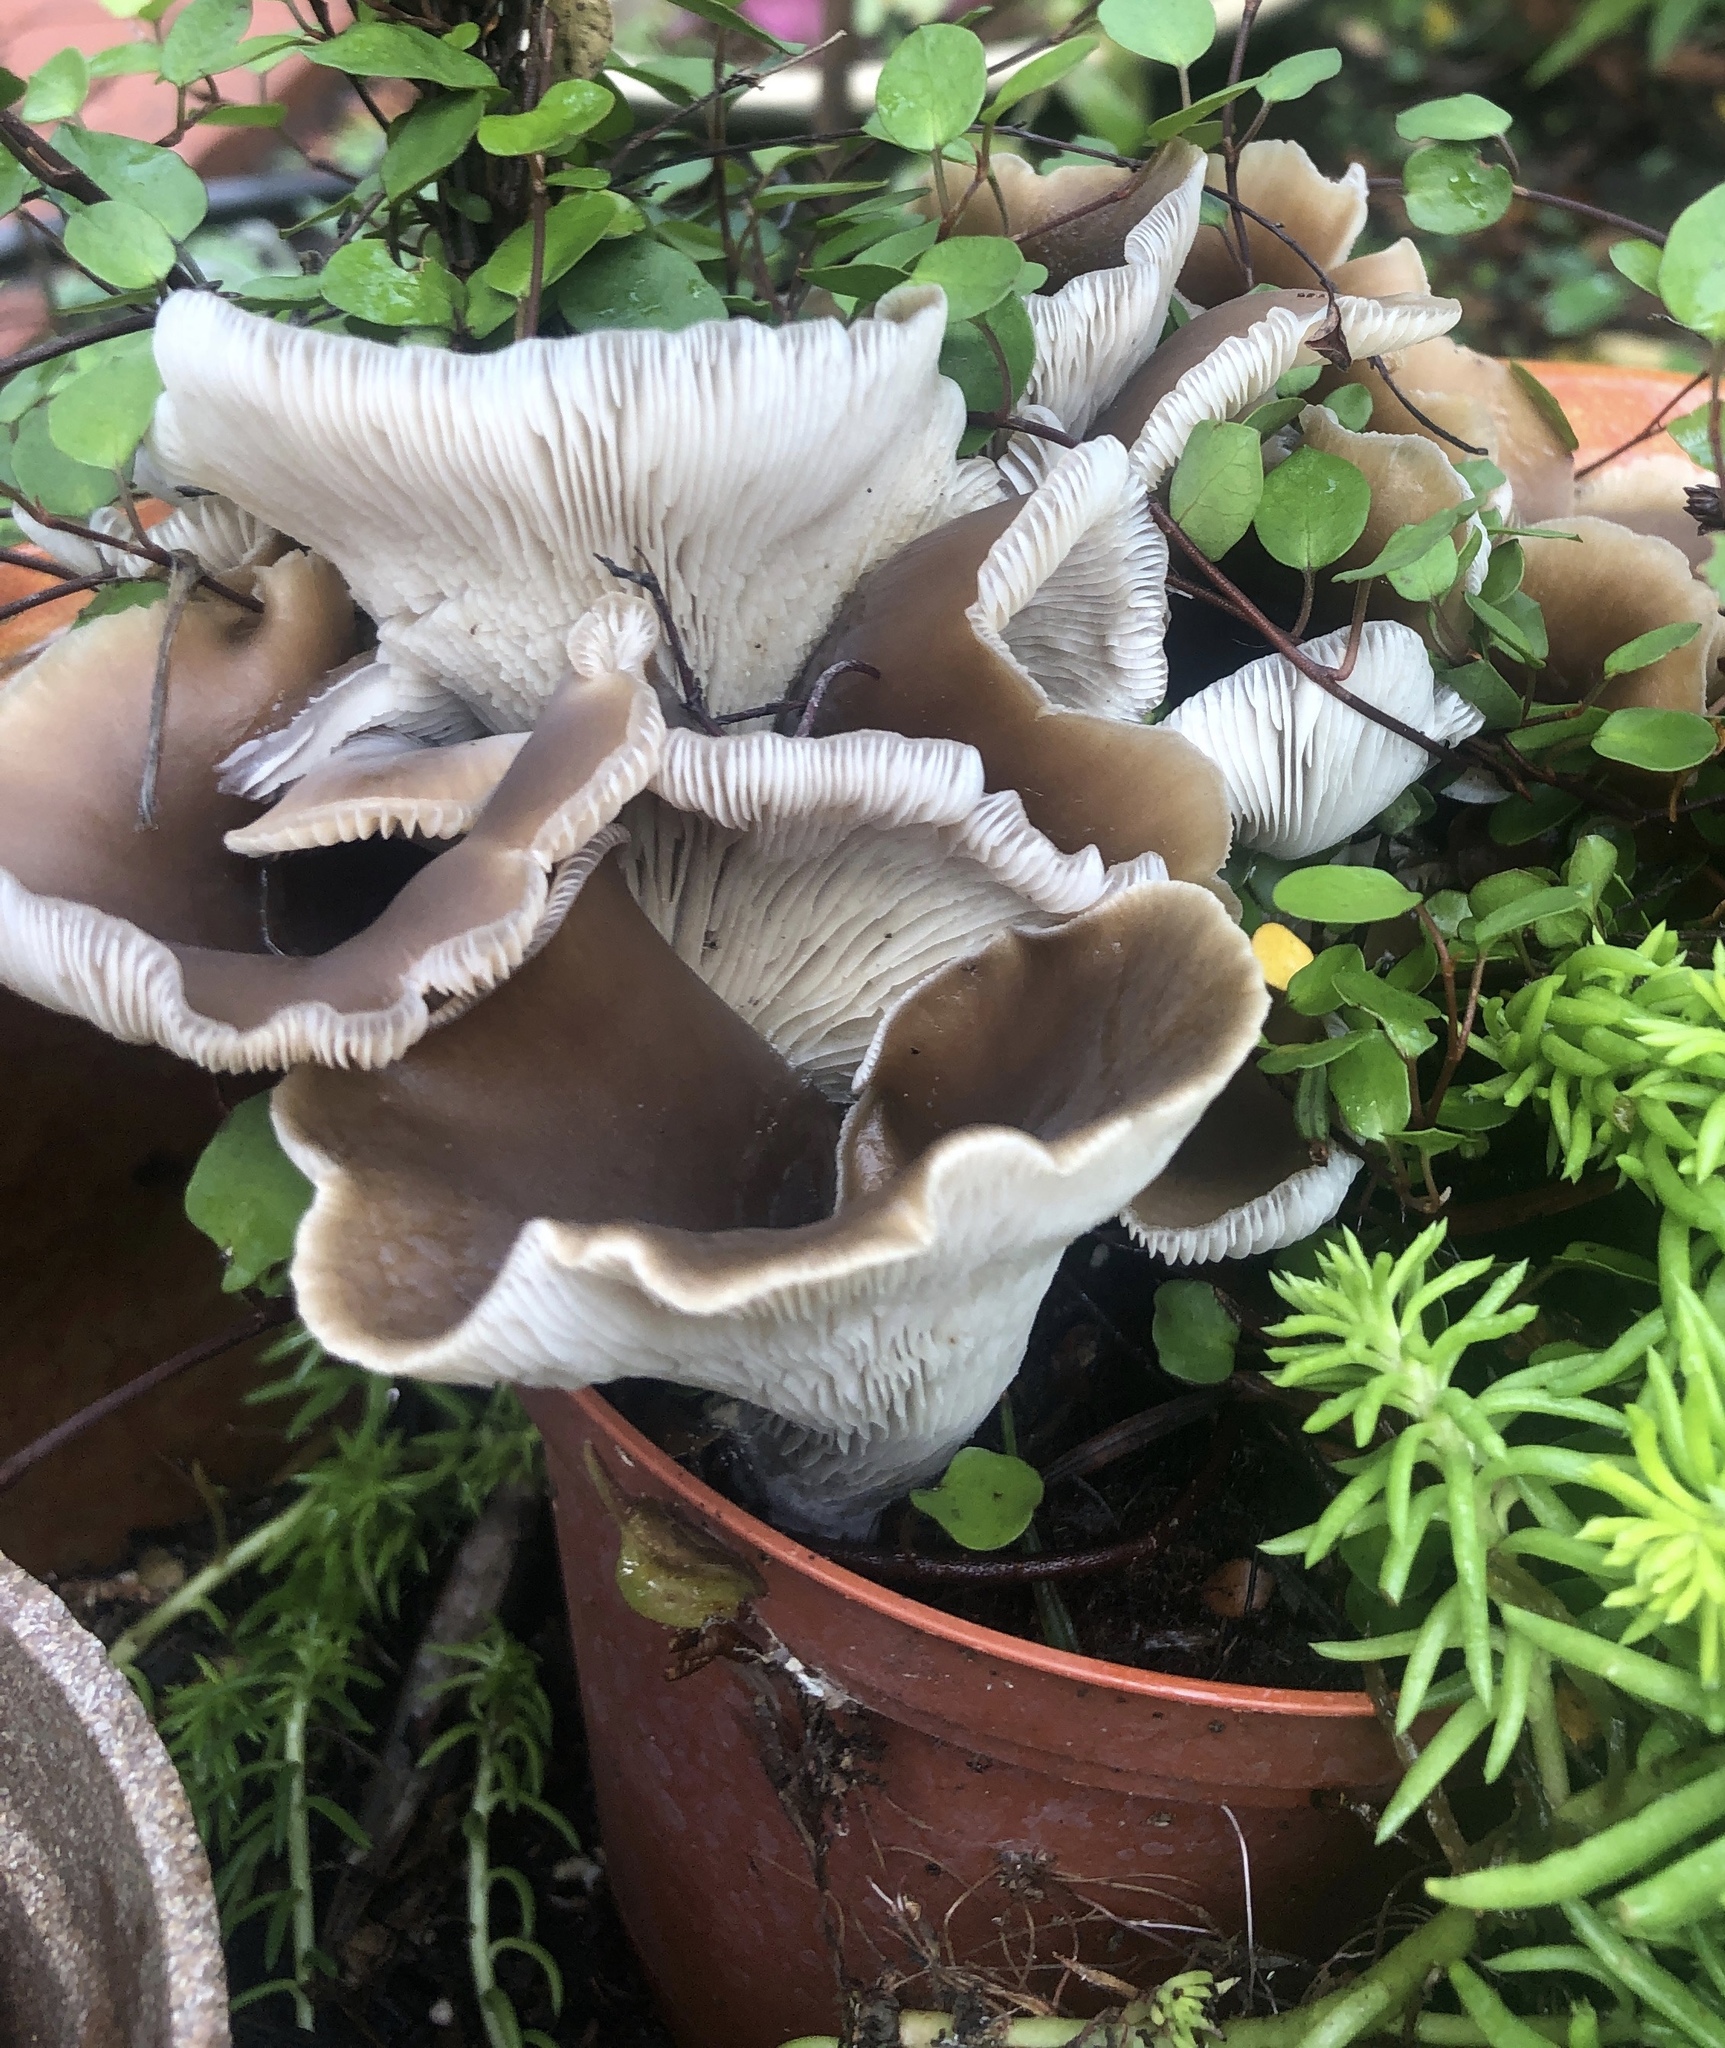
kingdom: Fungi
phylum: Basidiomycota
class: Agaricomycetes
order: Agaricales
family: Pleurotaceae
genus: Hohenbuehelia
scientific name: Hohenbuehelia petaloides
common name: Shoehorn oyster
